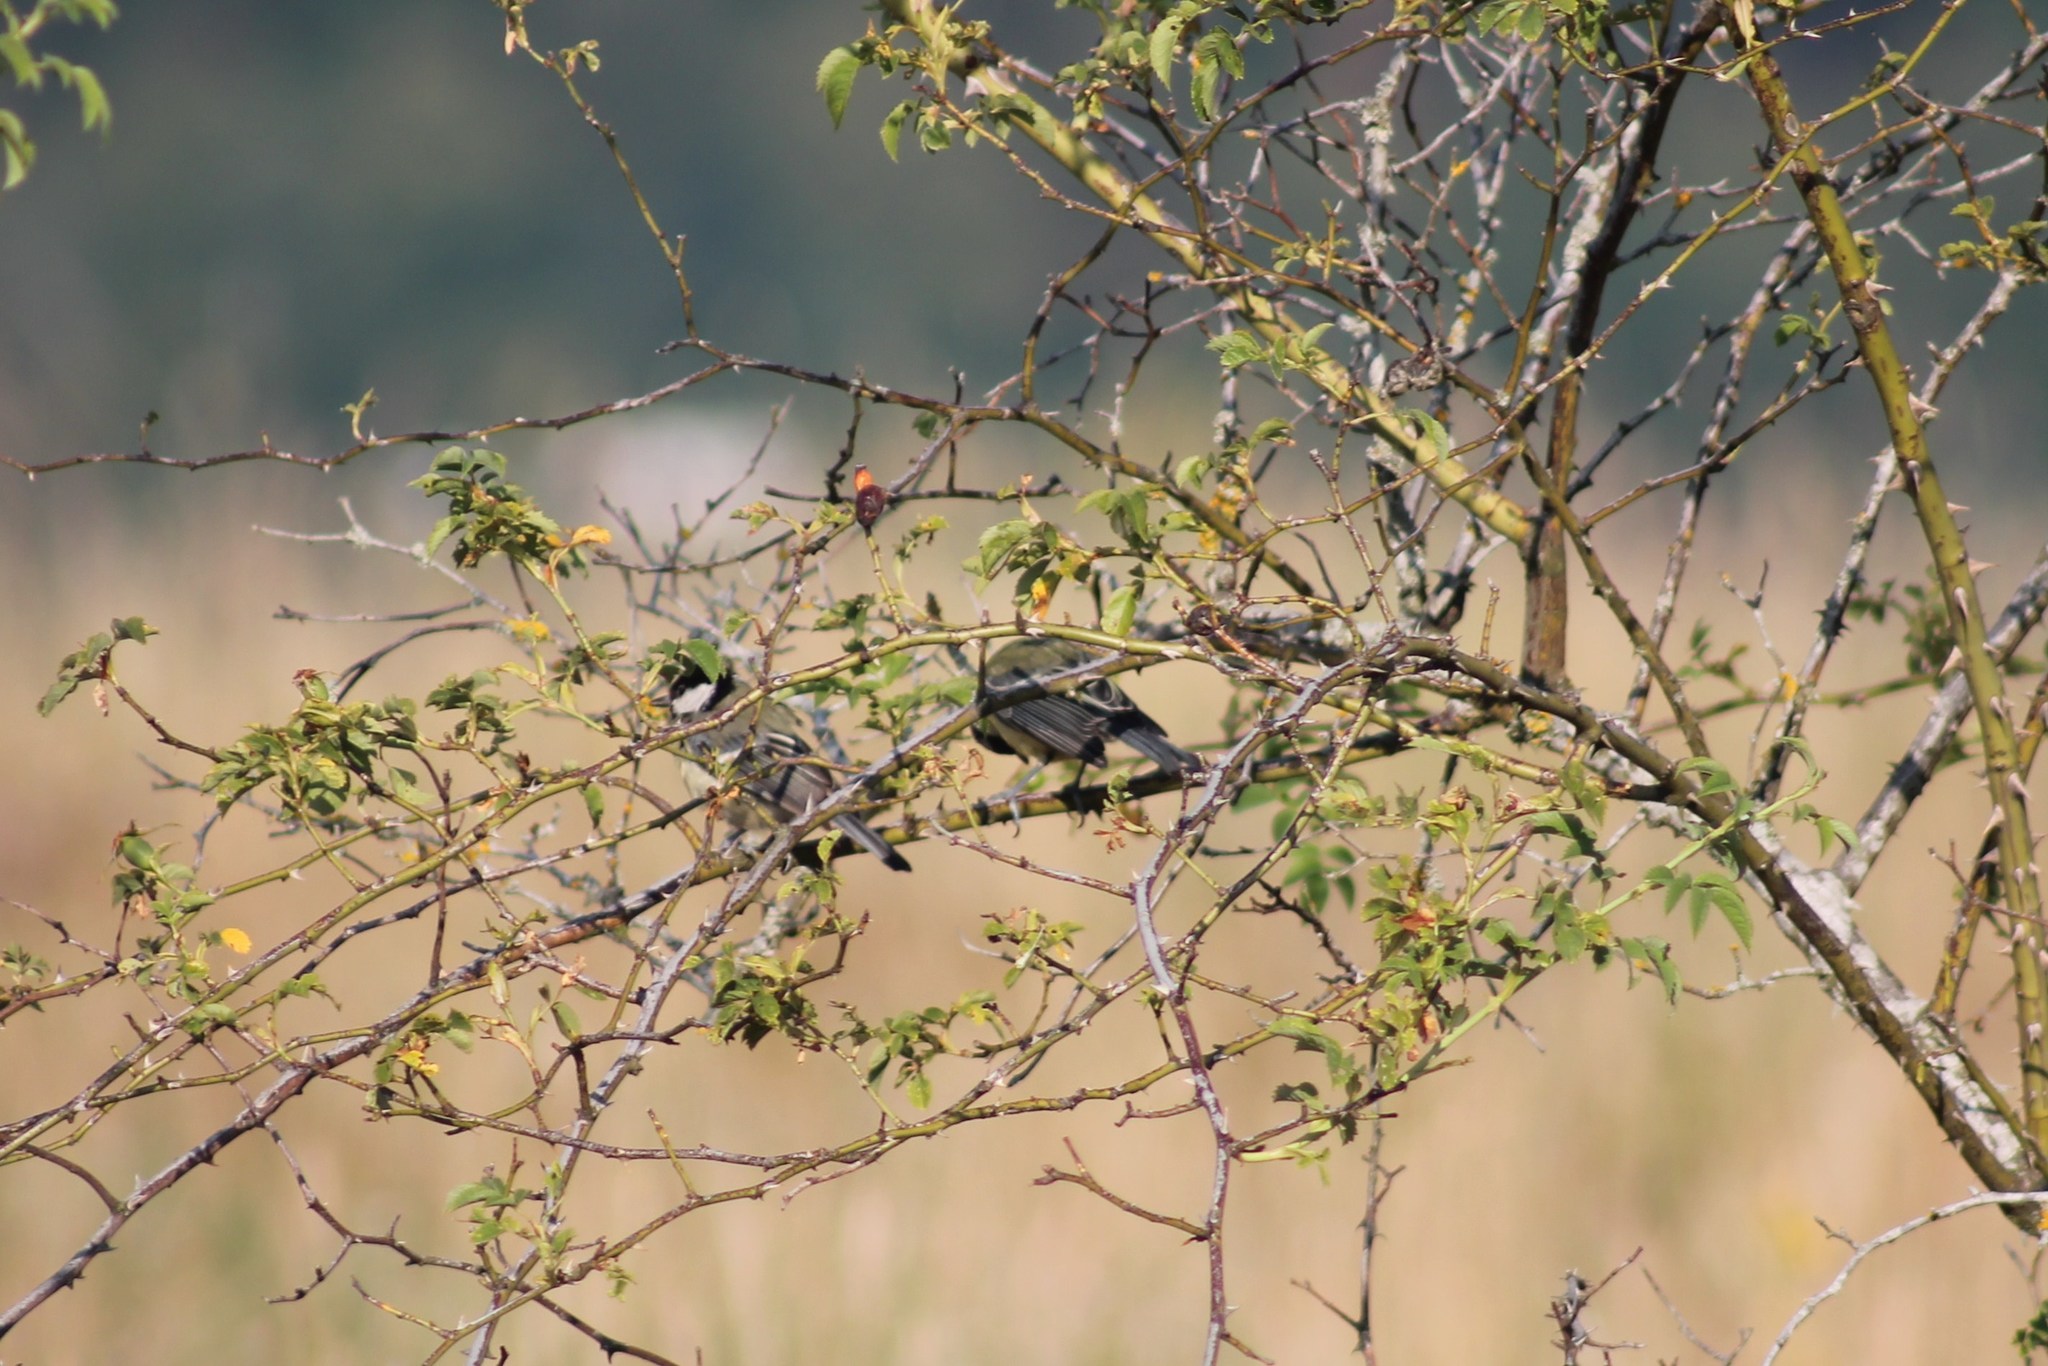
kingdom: Animalia
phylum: Chordata
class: Aves
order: Passeriformes
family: Paridae
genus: Parus
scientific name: Parus major
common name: Great tit
